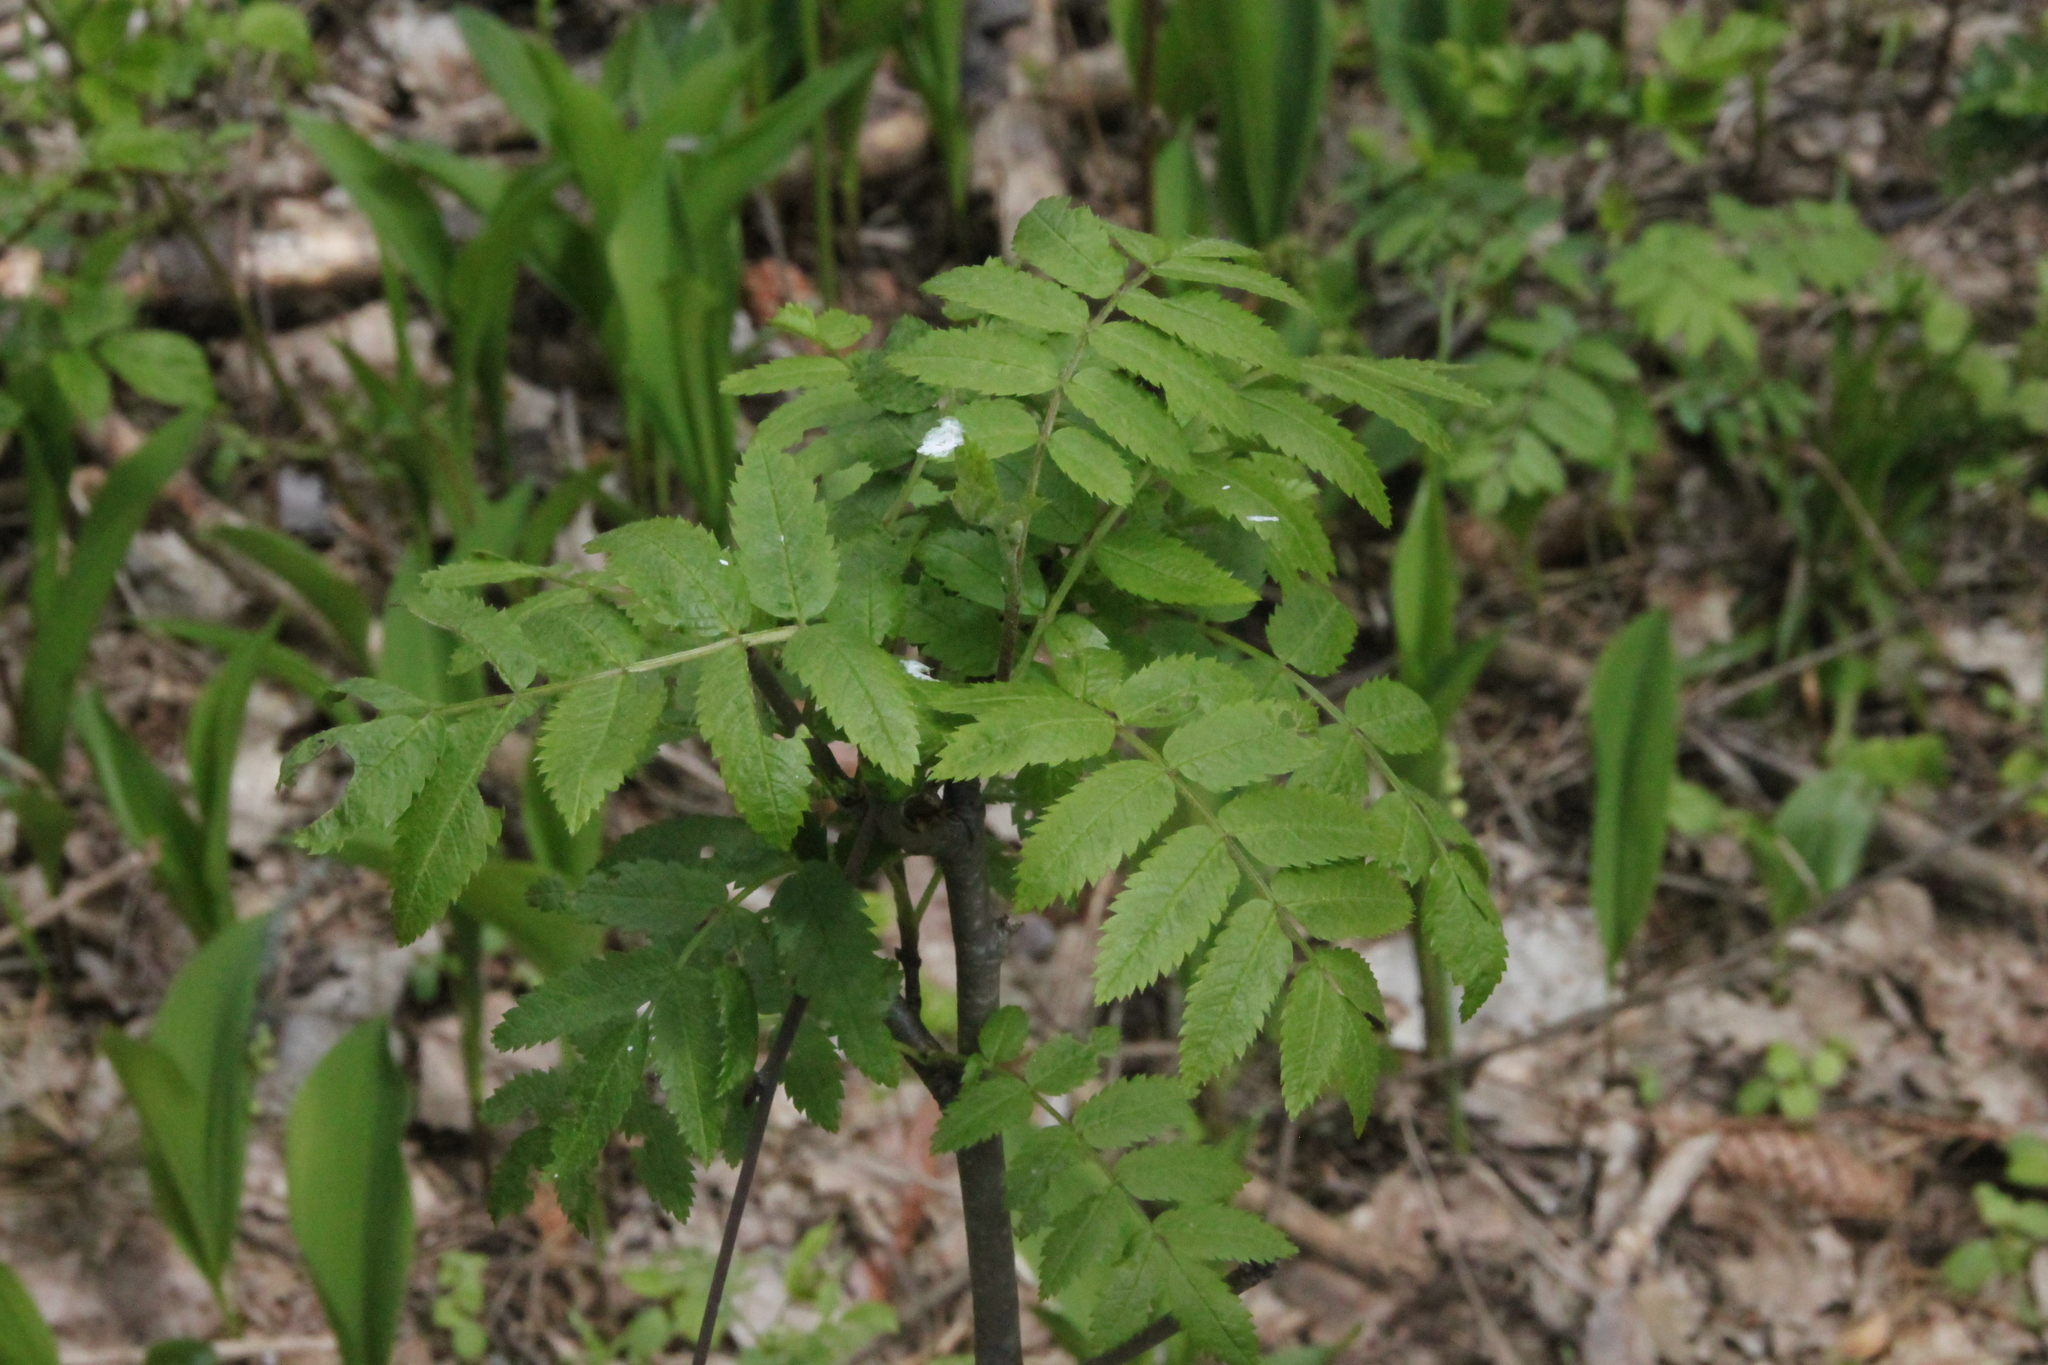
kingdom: Plantae
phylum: Tracheophyta
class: Magnoliopsida
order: Rosales
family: Rosaceae
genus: Sorbus
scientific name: Sorbus aucuparia
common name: Rowan
